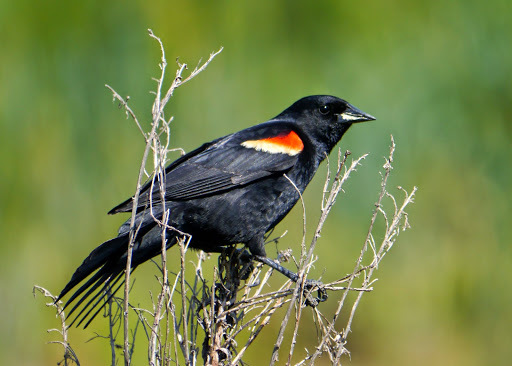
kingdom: Animalia
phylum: Chordata
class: Aves
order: Passeriformes
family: Icteridae
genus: Agelaius
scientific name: Agelaius phoeniceus
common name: Red-winged blackbird
